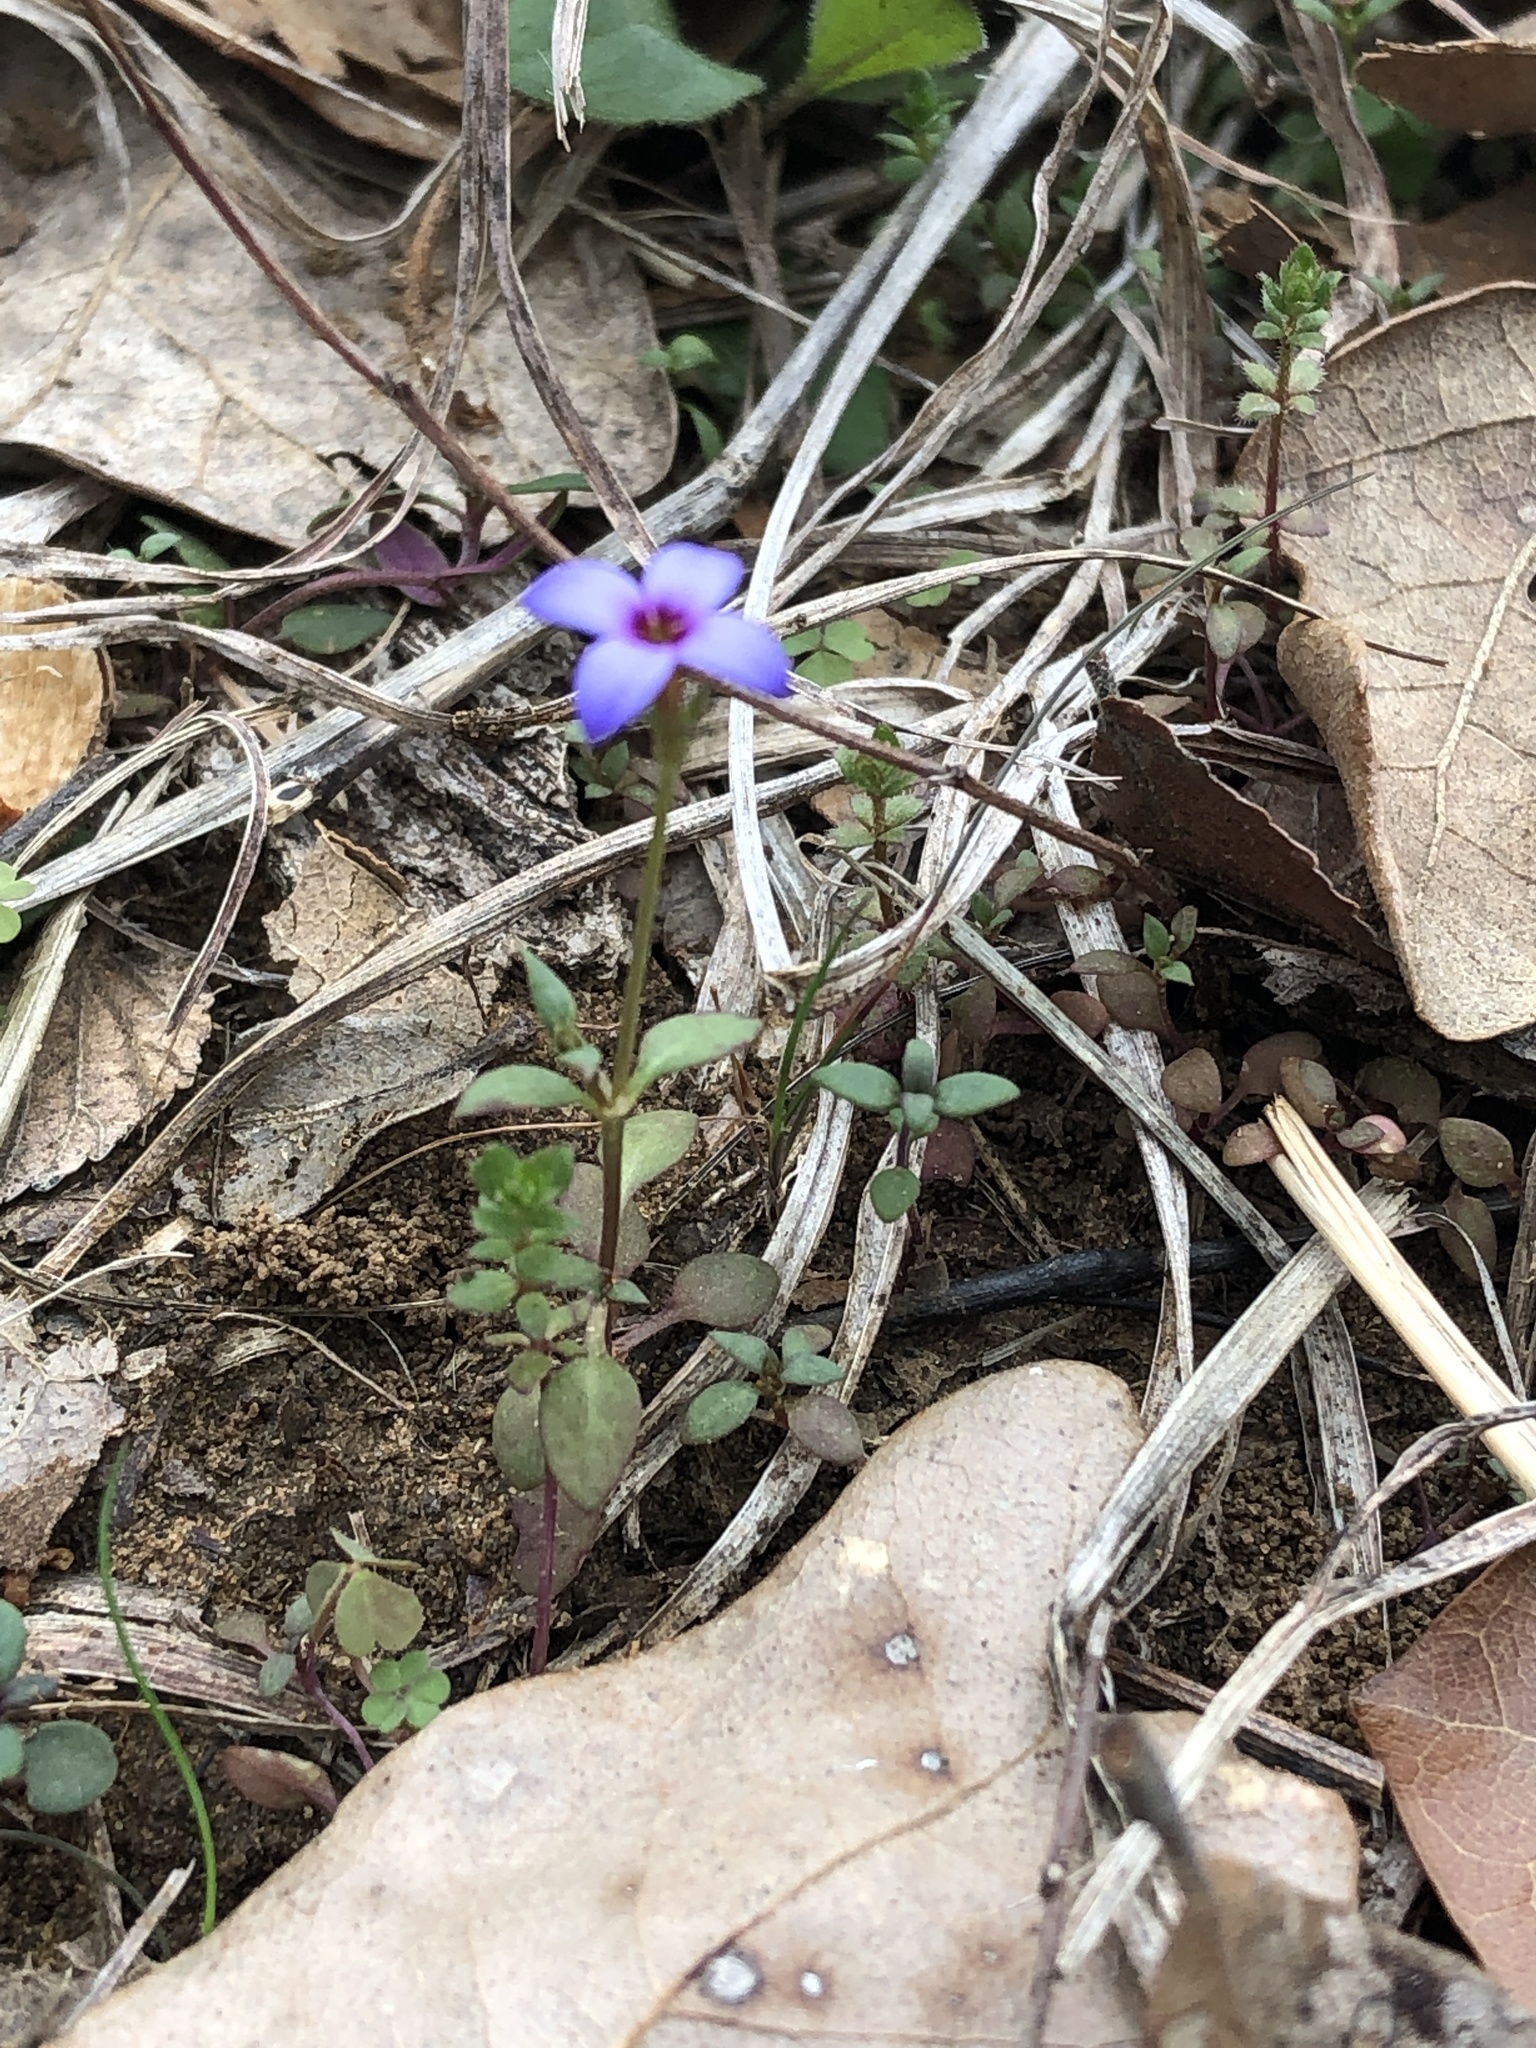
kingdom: Plantae
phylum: Tracheophyta
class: Magnoliopsida
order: Gentianales
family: Rubiaceae
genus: Houstonia
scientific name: Houstonia pusilla
